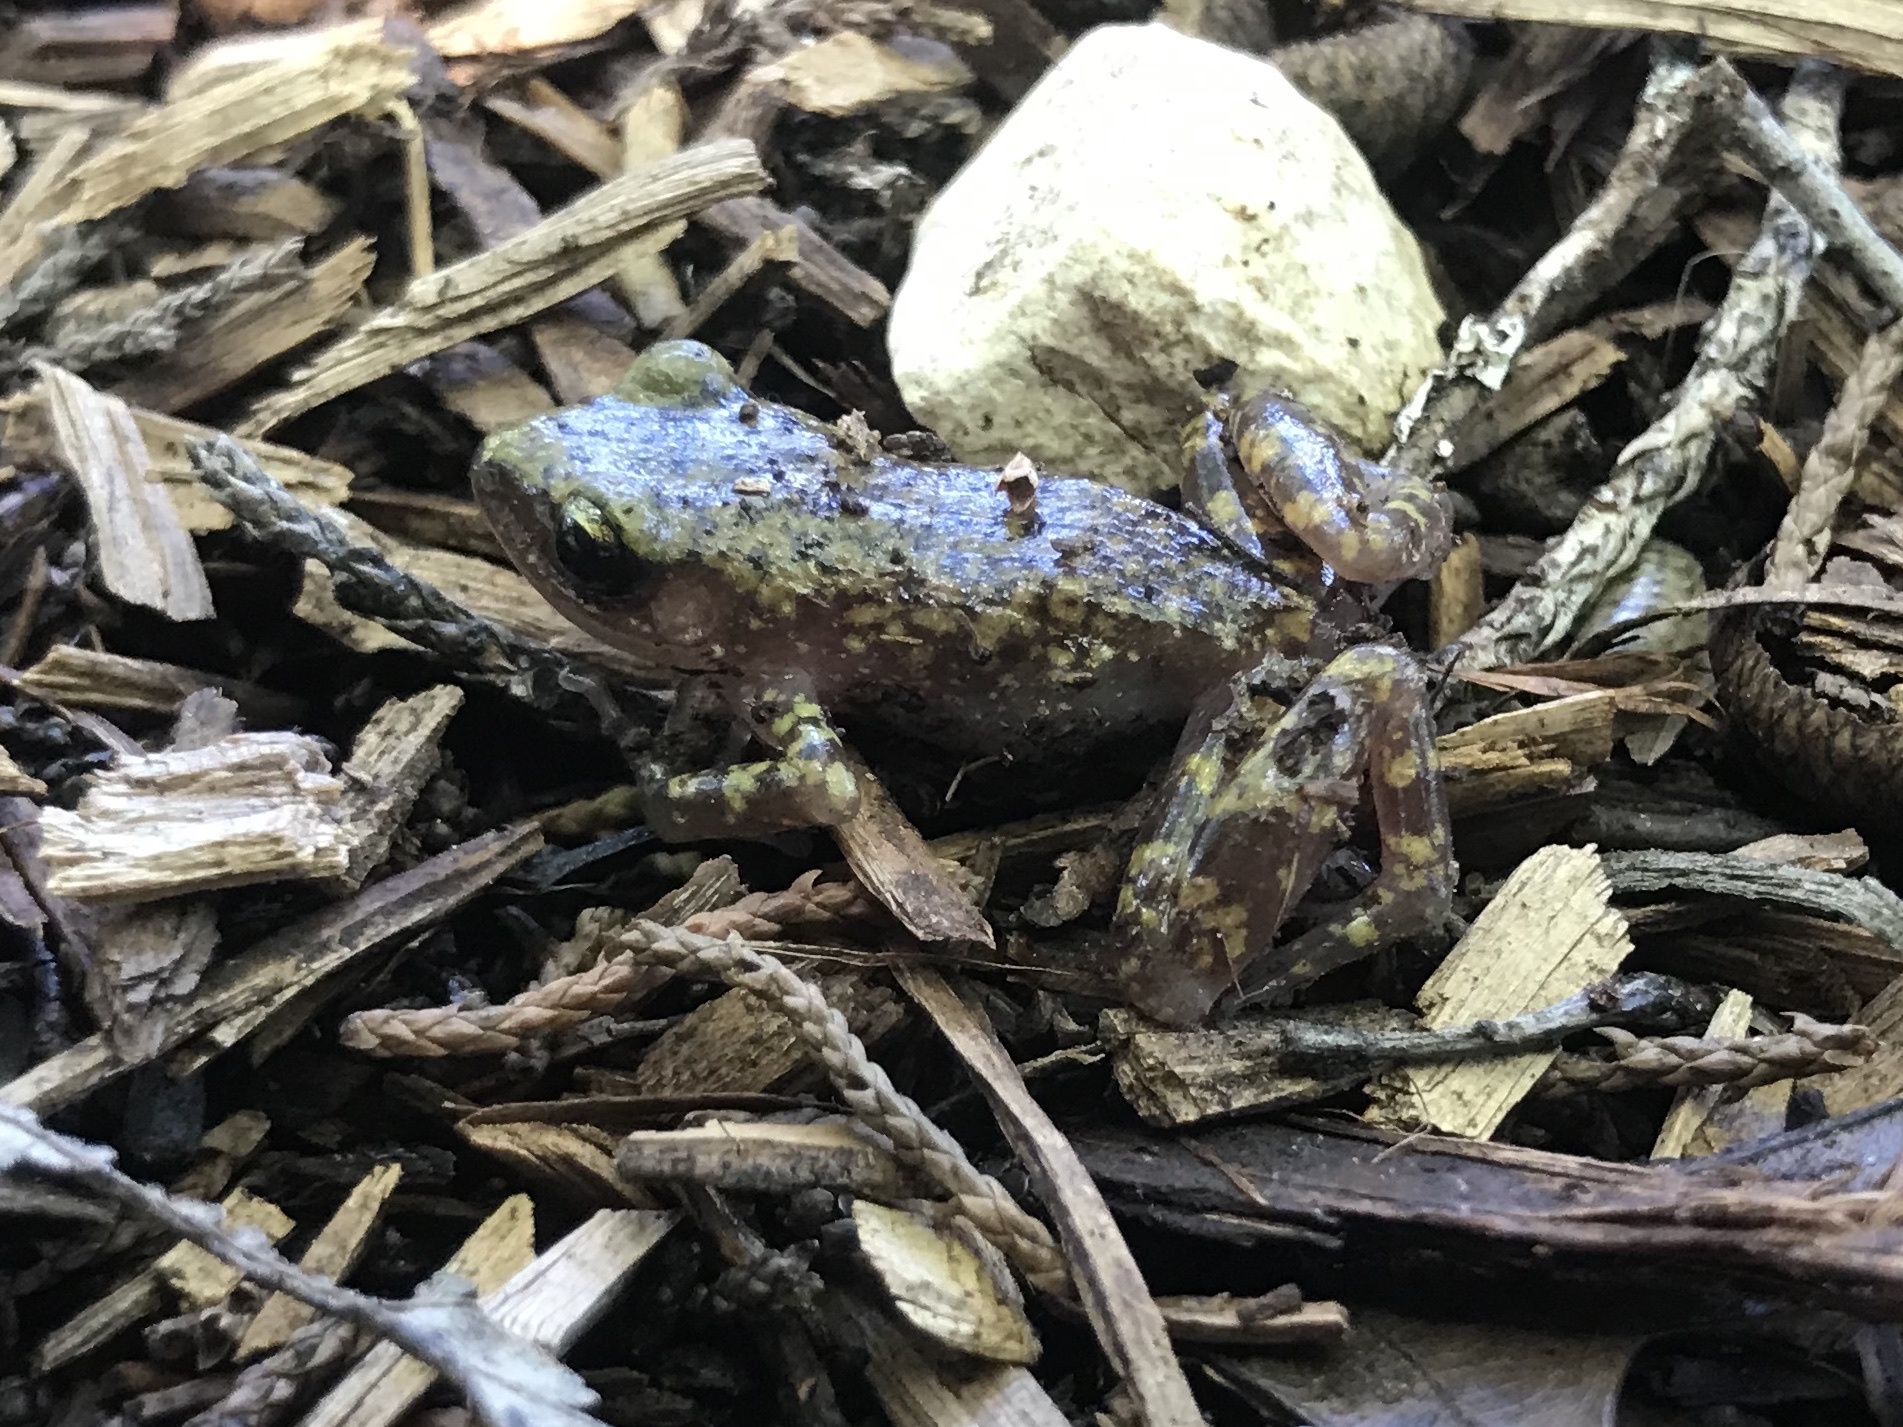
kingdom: Animalia
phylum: Chordata
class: Amphibia
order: Anura
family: Eleutherodactylidae
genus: Eleutherodactylus
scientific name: Eleutherodactylus marnockii
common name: Cliff chirping frog
